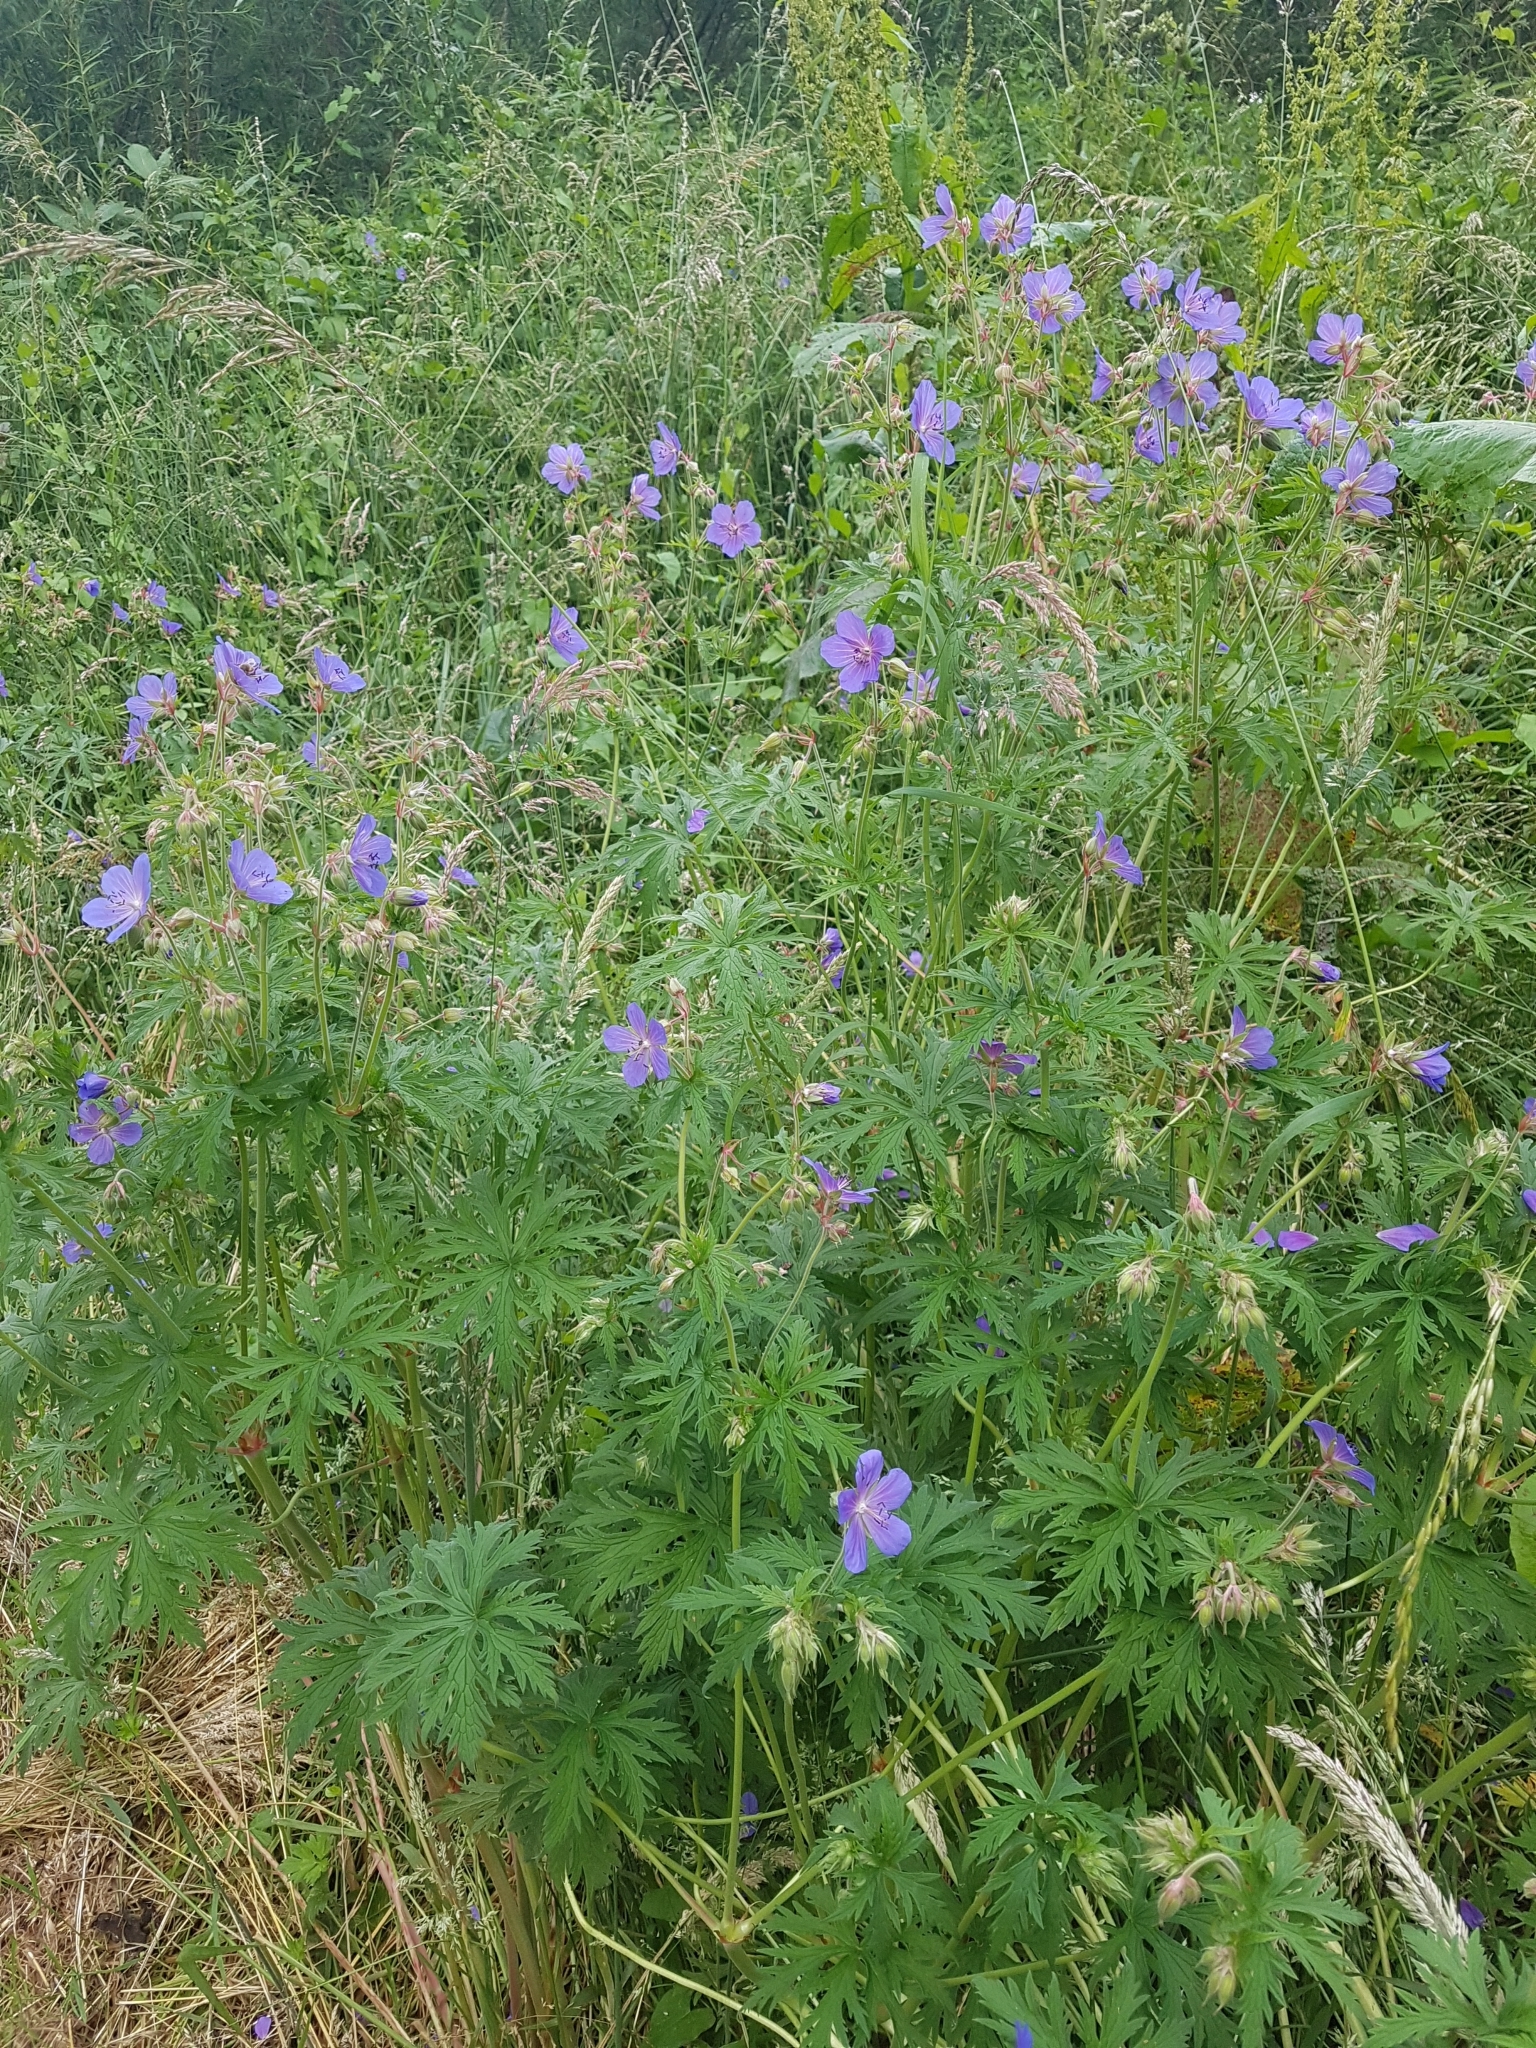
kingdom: Plantae
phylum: Tracheophyta
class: Magnoliopsida
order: Geraniales
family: Geraniaceae
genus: Geranium
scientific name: Geranium pratense
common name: Meadow crane's-bill
